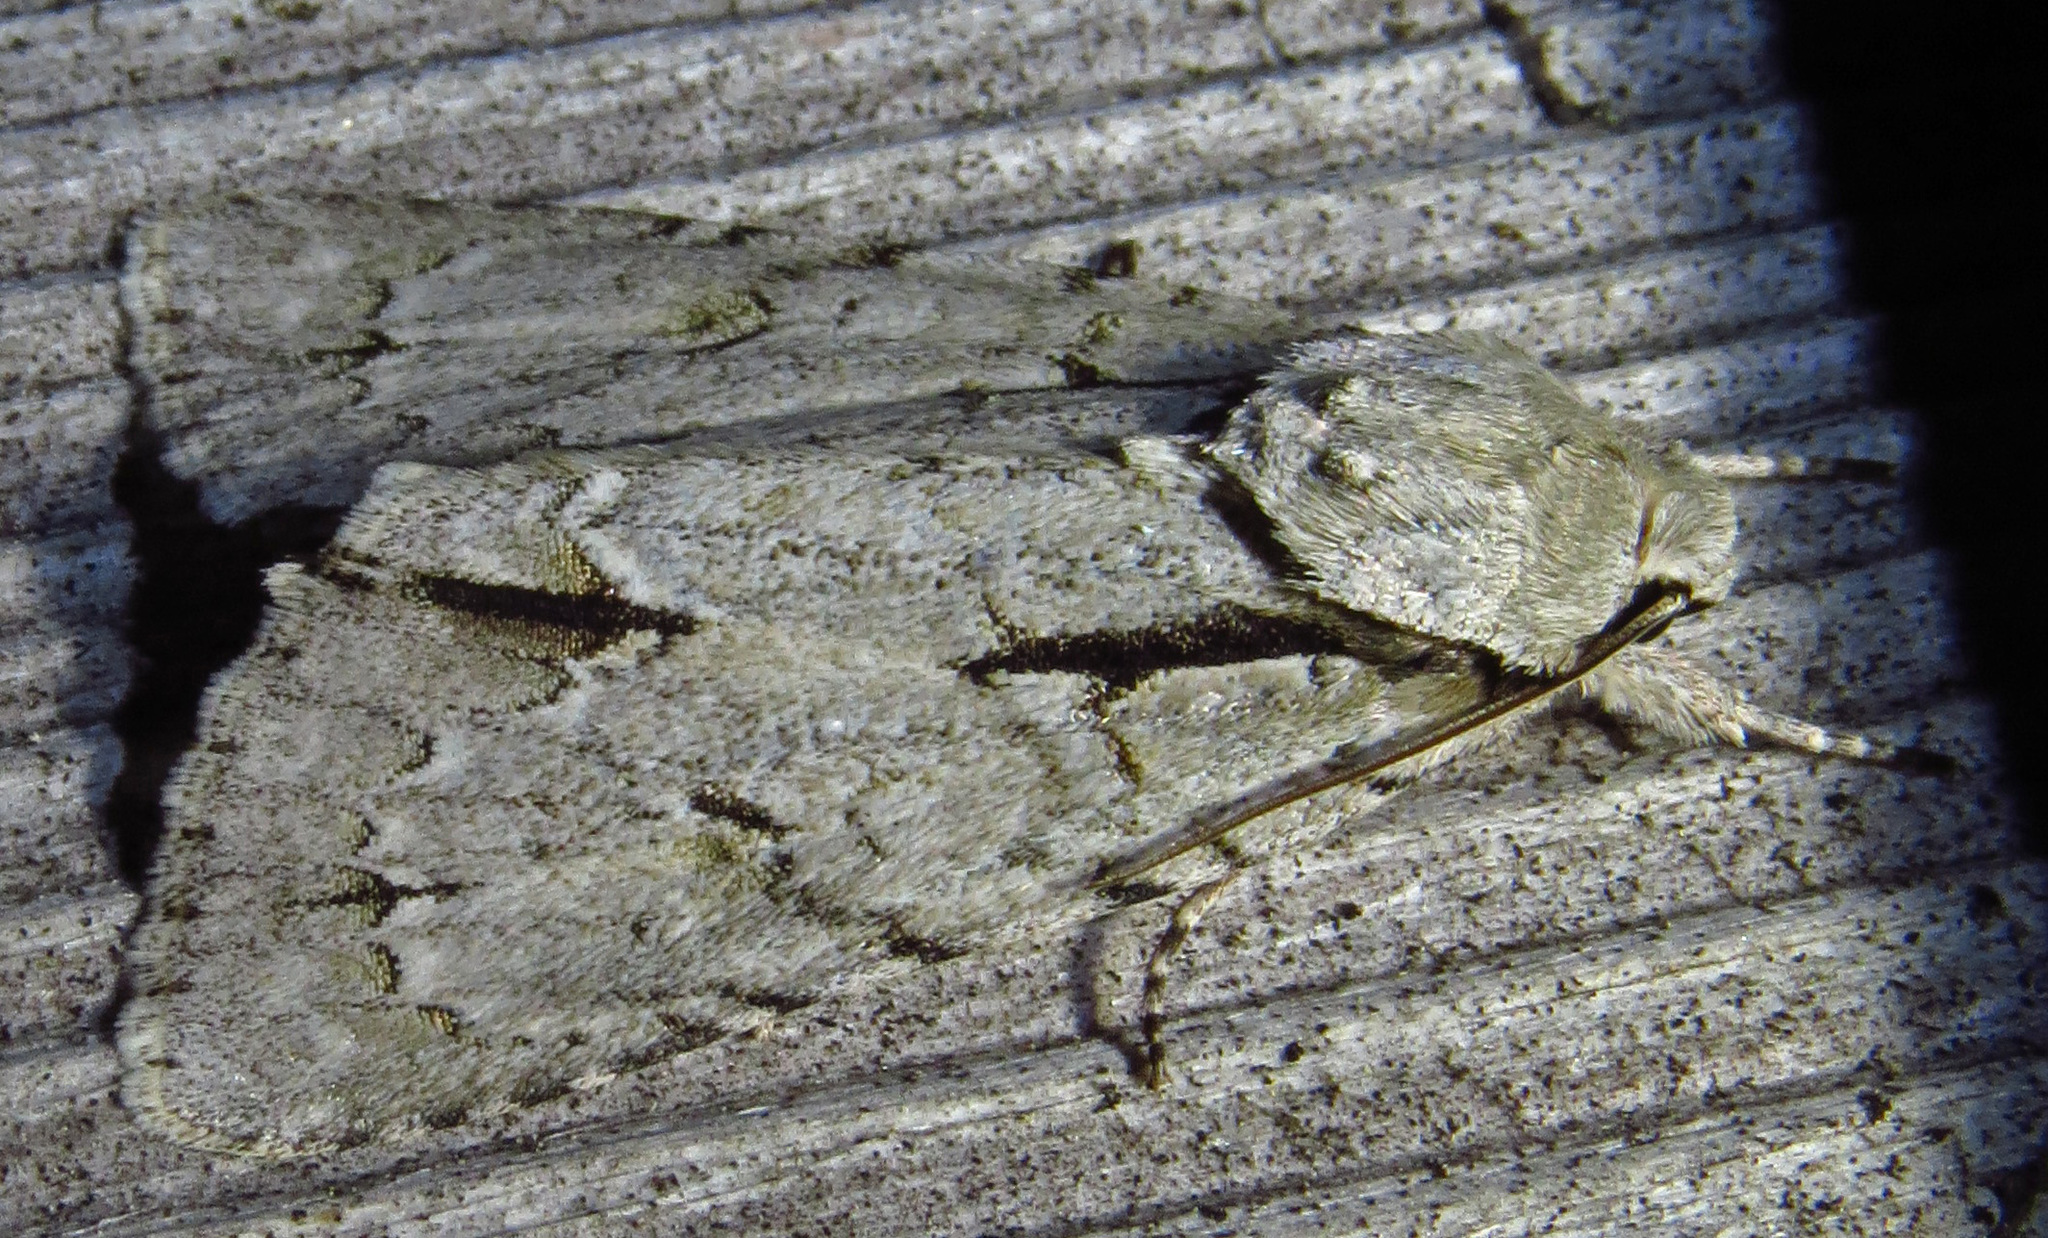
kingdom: Animalia
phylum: Arthropoda
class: Insecta
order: Lepidoptera
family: Noctuidae
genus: Acronicta
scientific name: Acronicta interrupta
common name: Interrupted dagger
